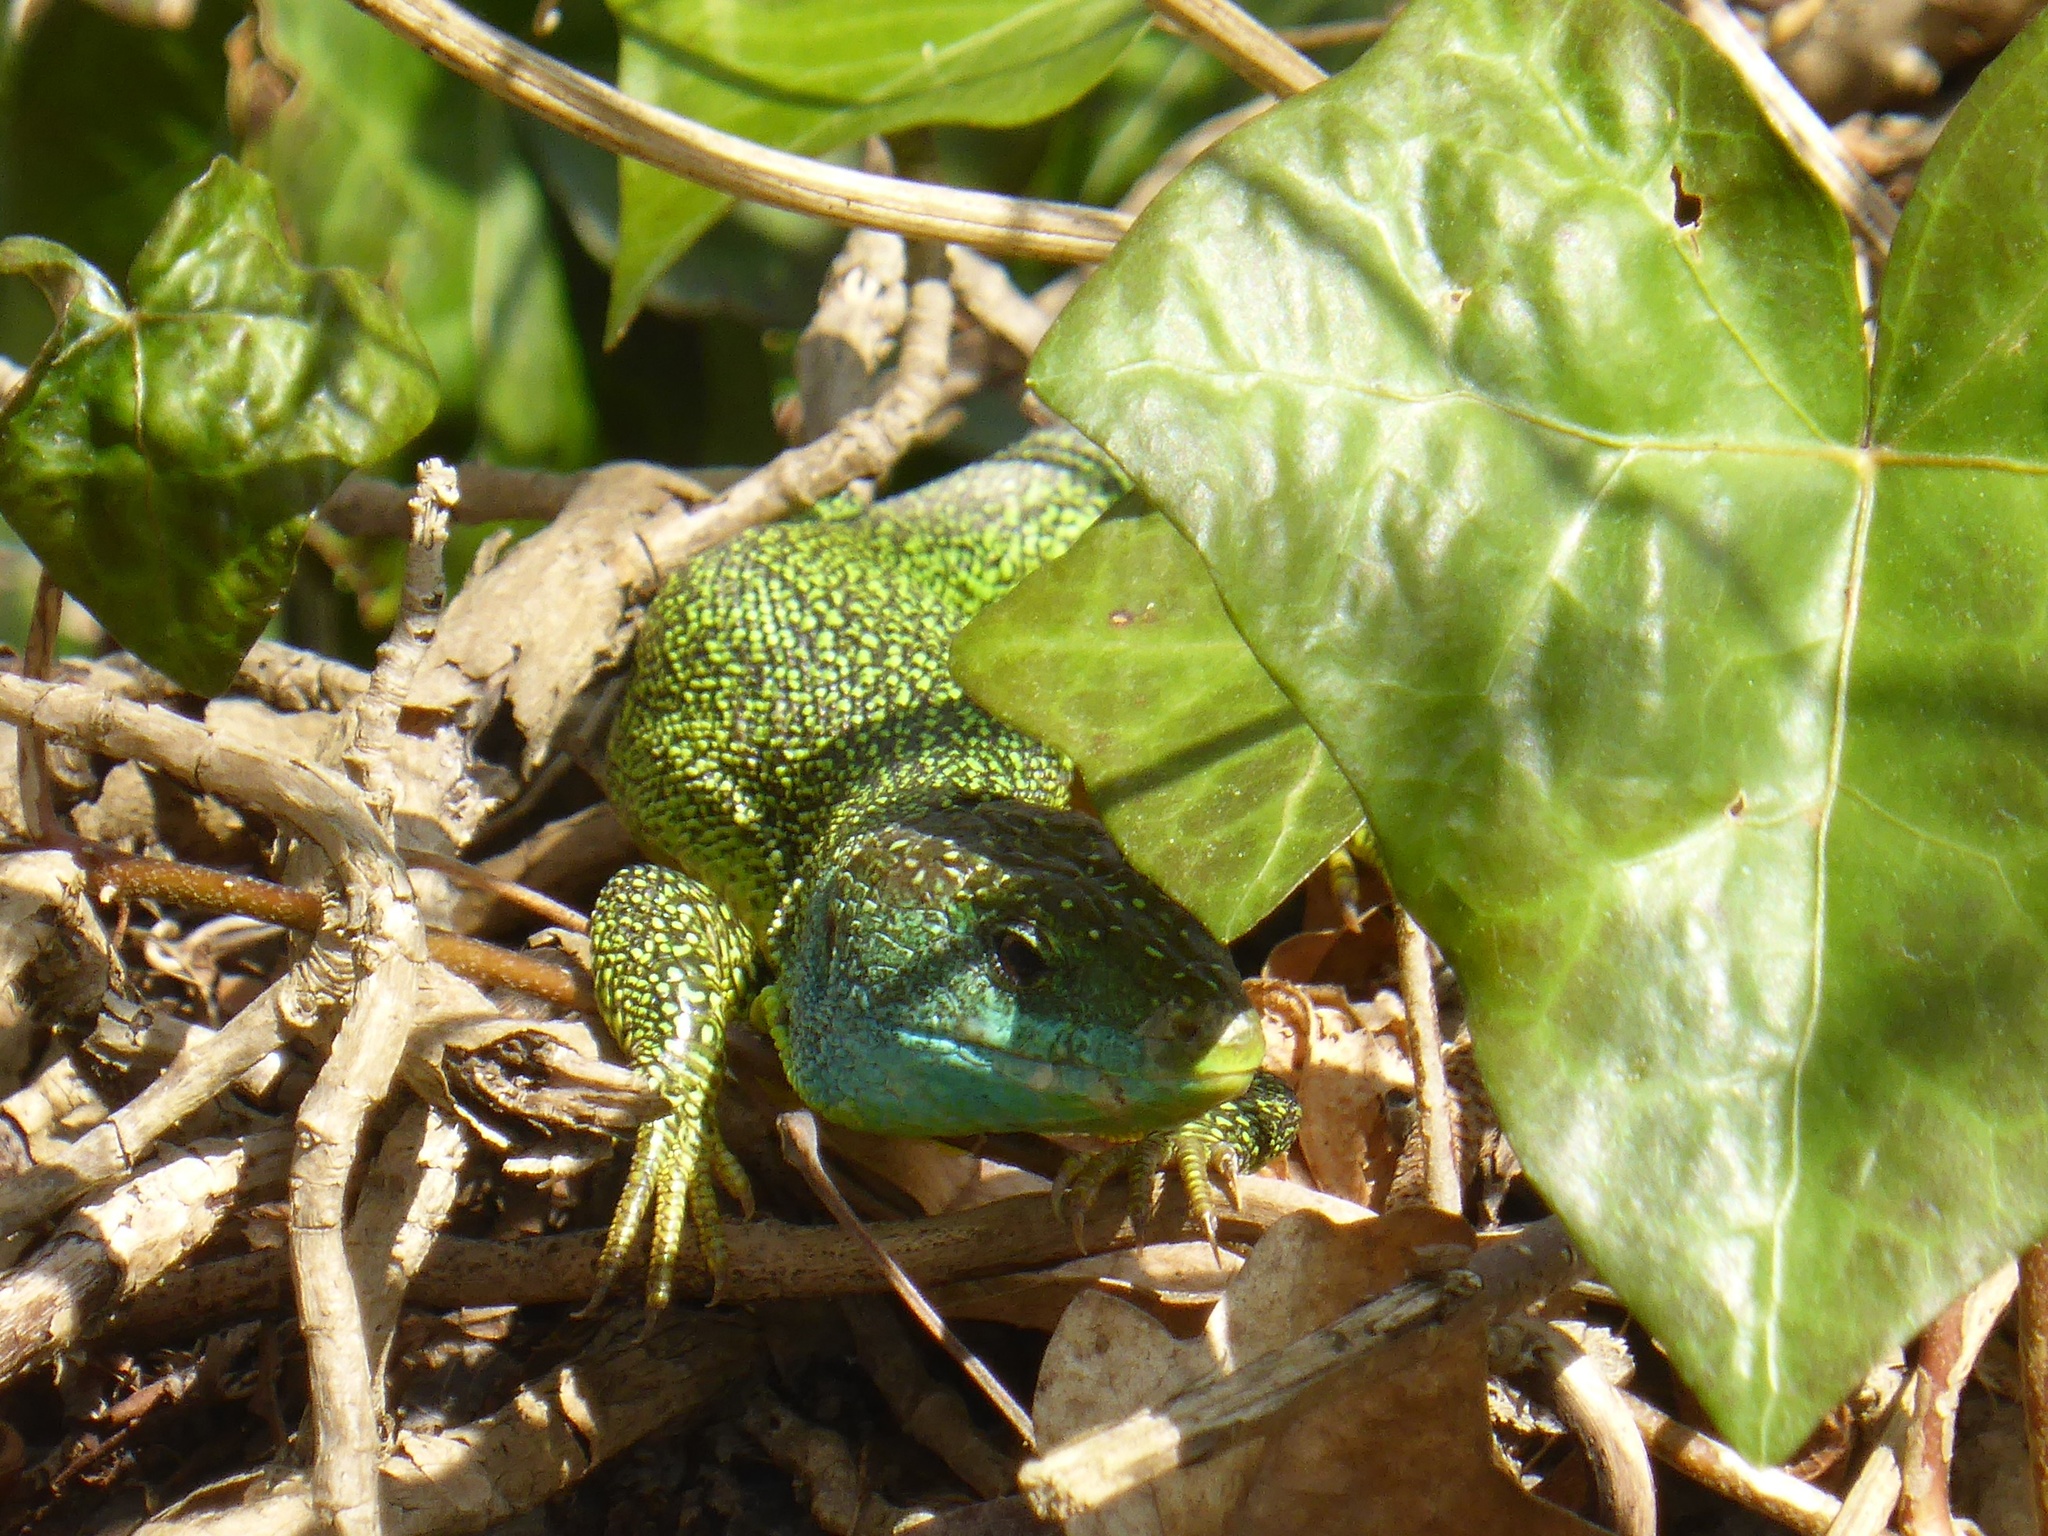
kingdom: Animalia
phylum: Chordata
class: Squamata
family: Lacertidae
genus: Lacerta
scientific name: Lacerta bilineata
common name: Western green lizard
